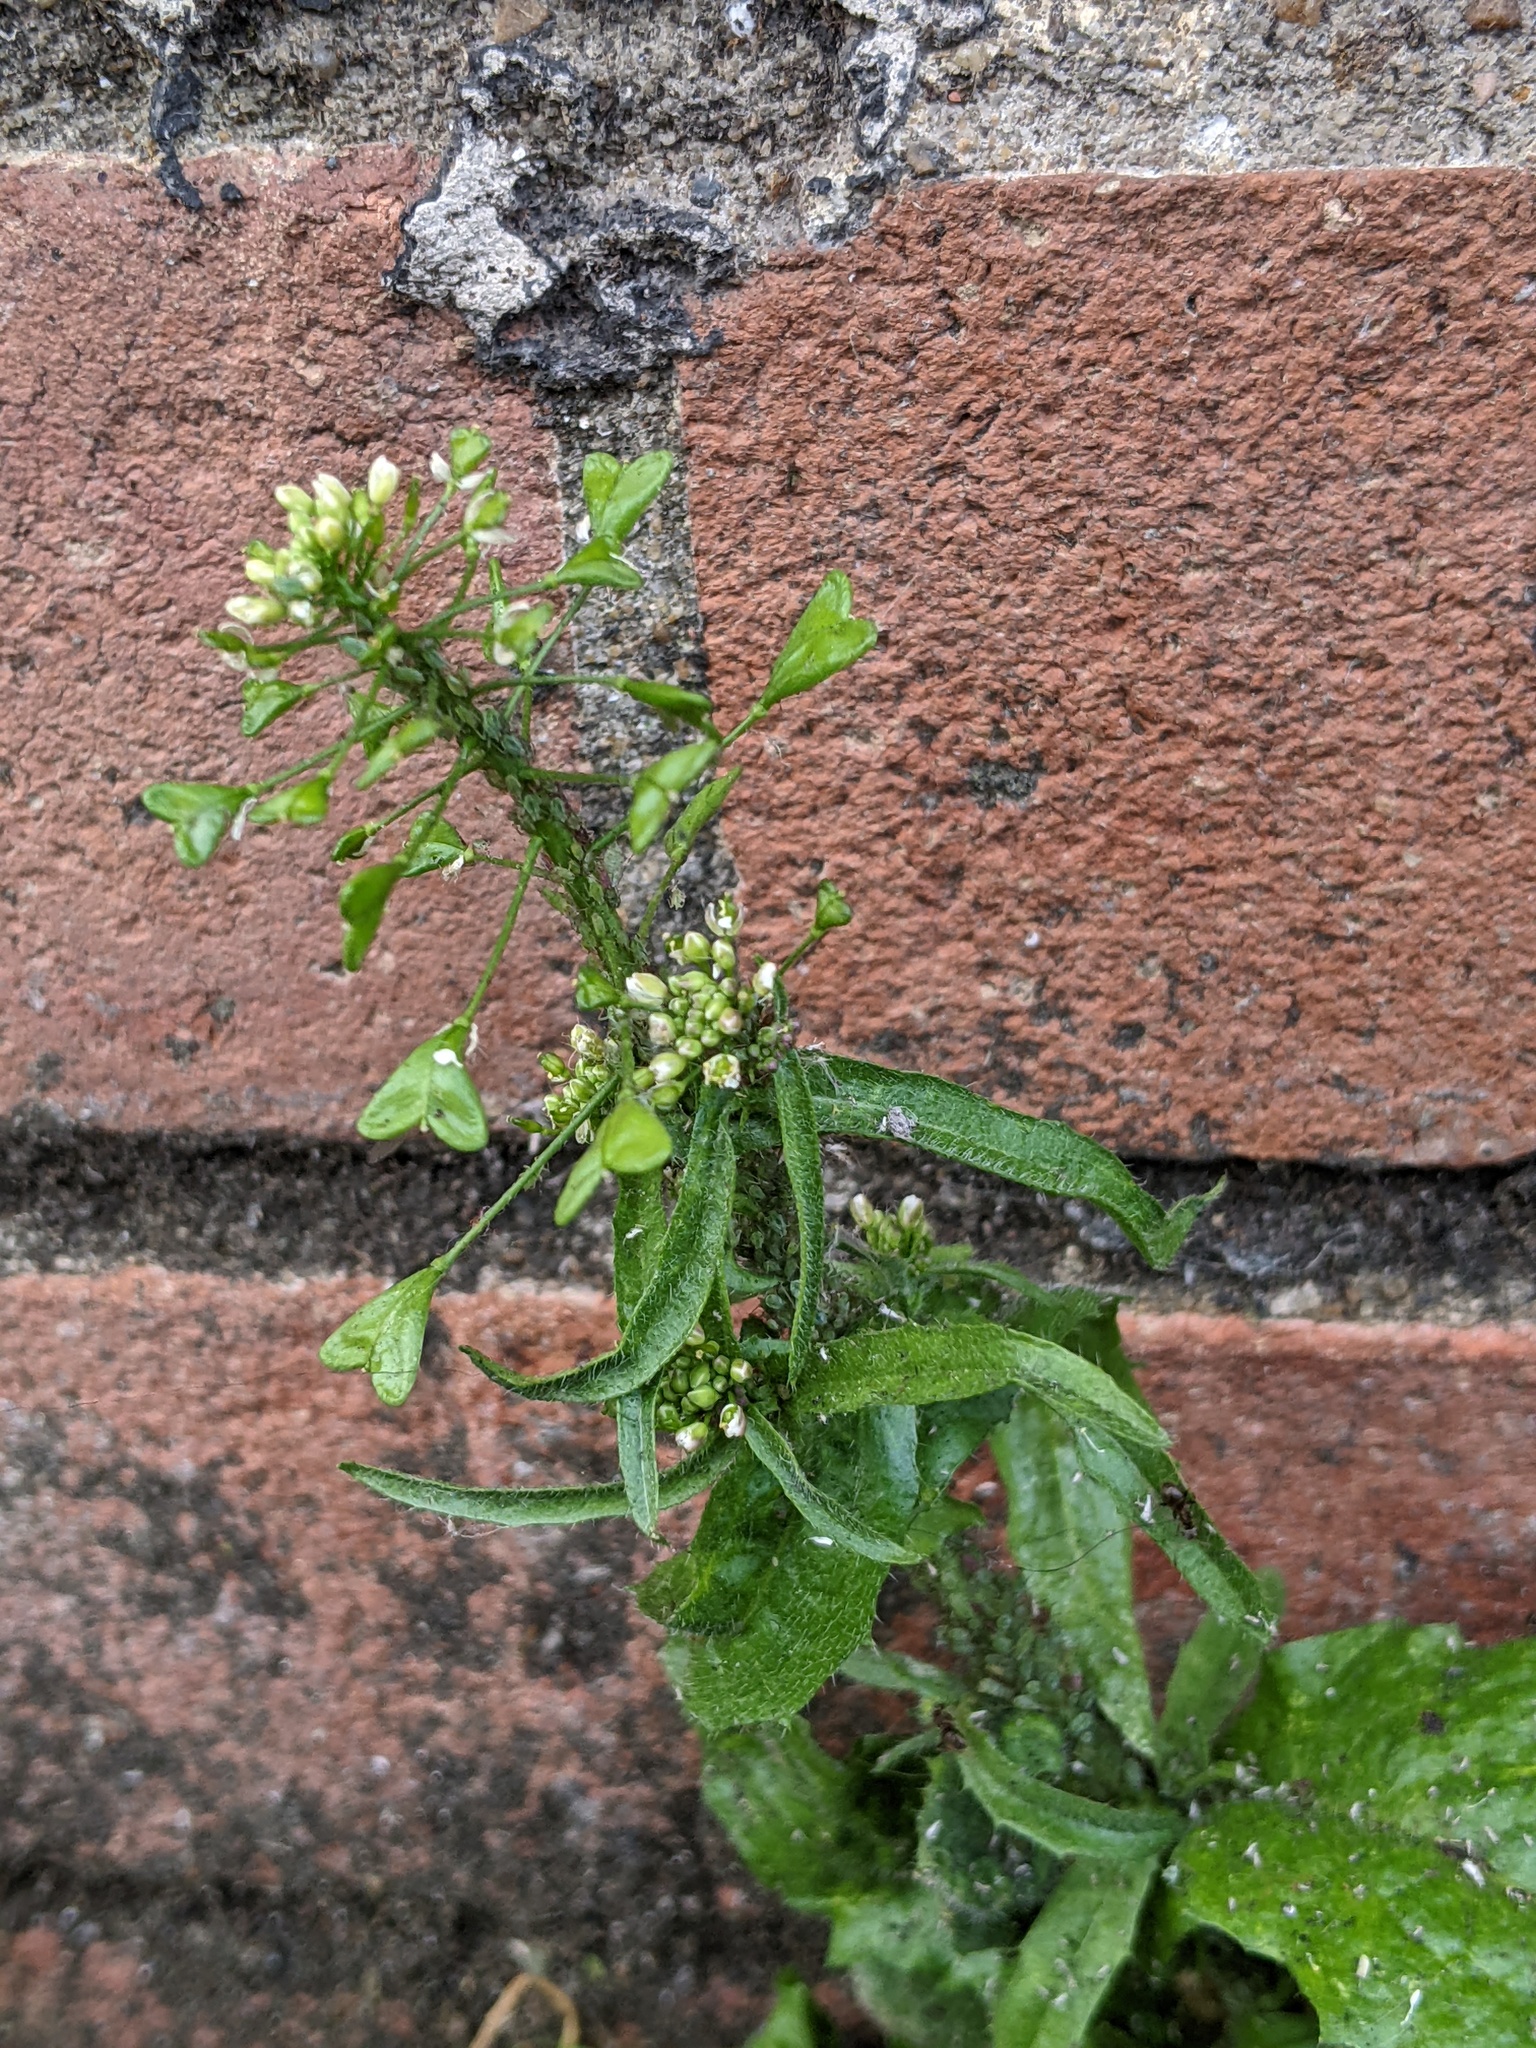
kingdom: Plantae
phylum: Tracheophyta
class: Magnoliopsida
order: Brassicales
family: Brassicaceae
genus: Capsella
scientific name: Capsella bursa-pastoris
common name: Shepherd's purse
